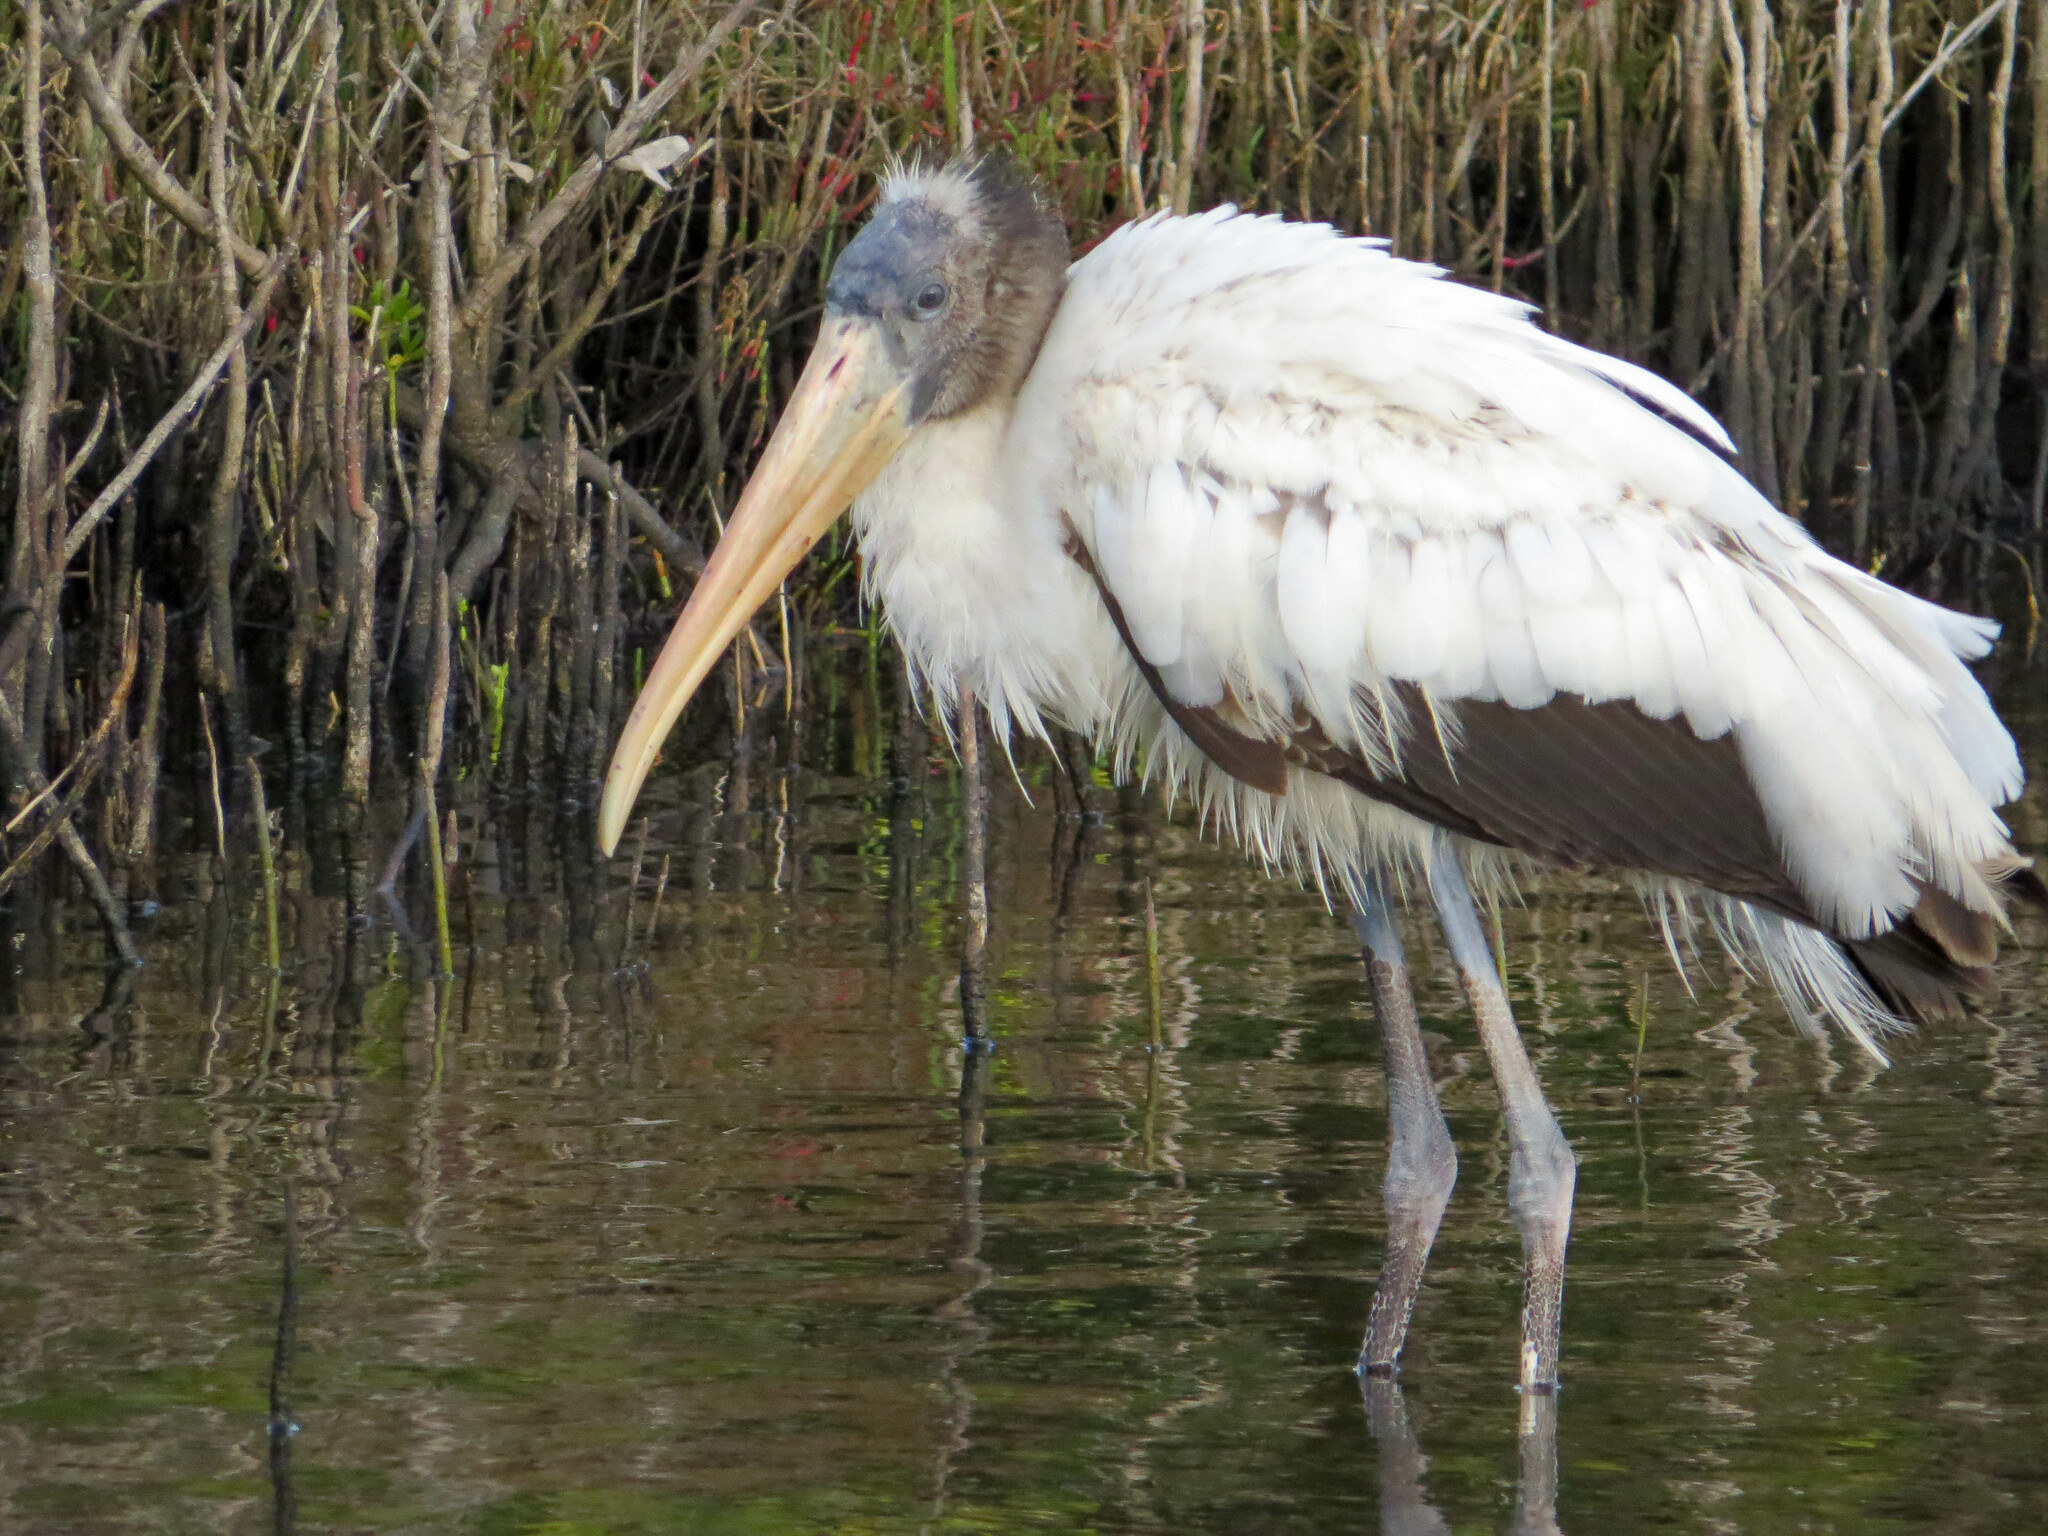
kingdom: Animalia
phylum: Chordata
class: Aves
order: Ciconiiformes
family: Ciconiidae
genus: Mycteria
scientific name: Mycteria americana
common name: Wood stork
